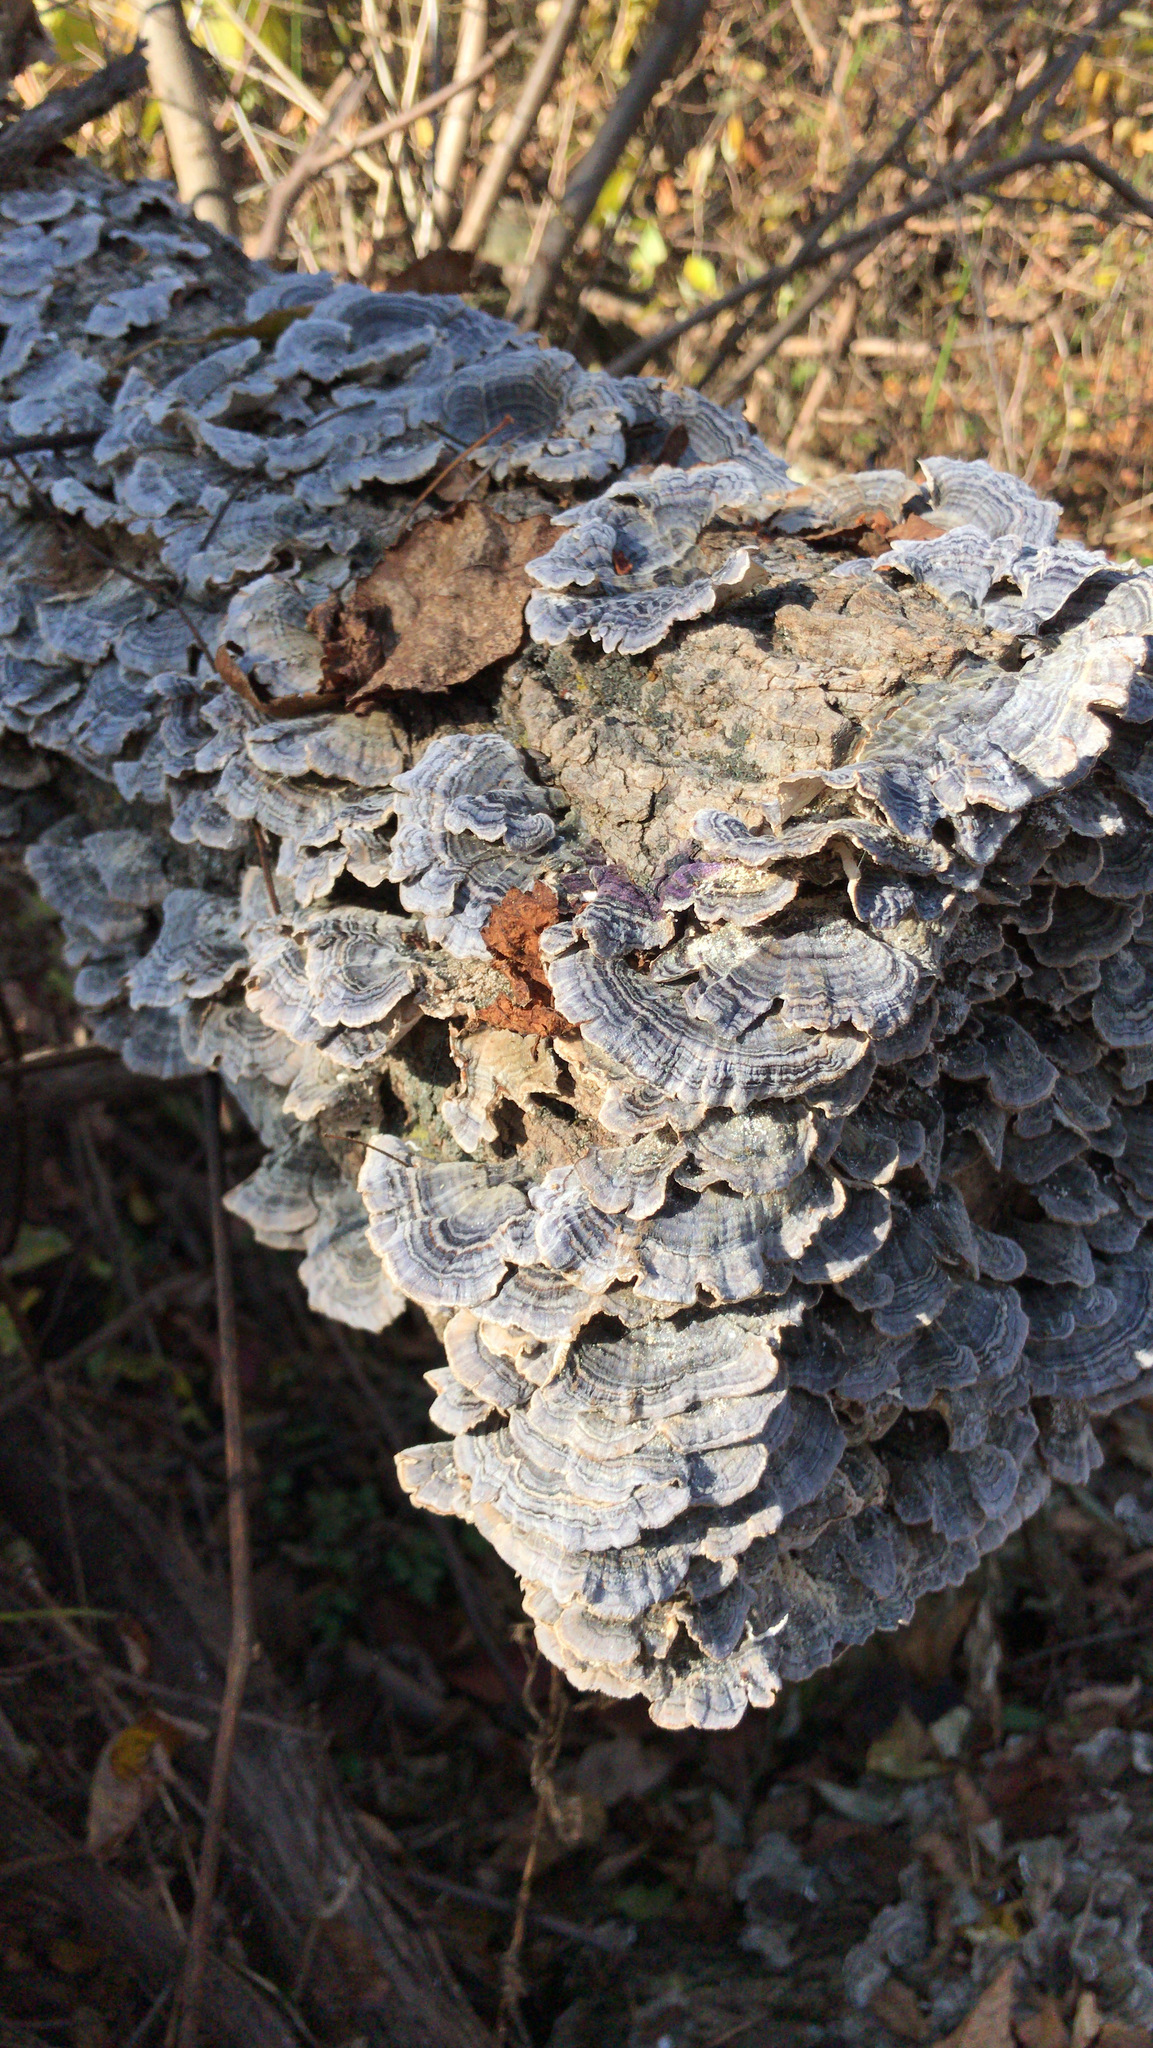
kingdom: Fungi
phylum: Basidiomycota
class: Agaricomycetes
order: Polyporales
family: Polyporaceae
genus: Trametes
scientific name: Trametes versicolor
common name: Turkeytail
